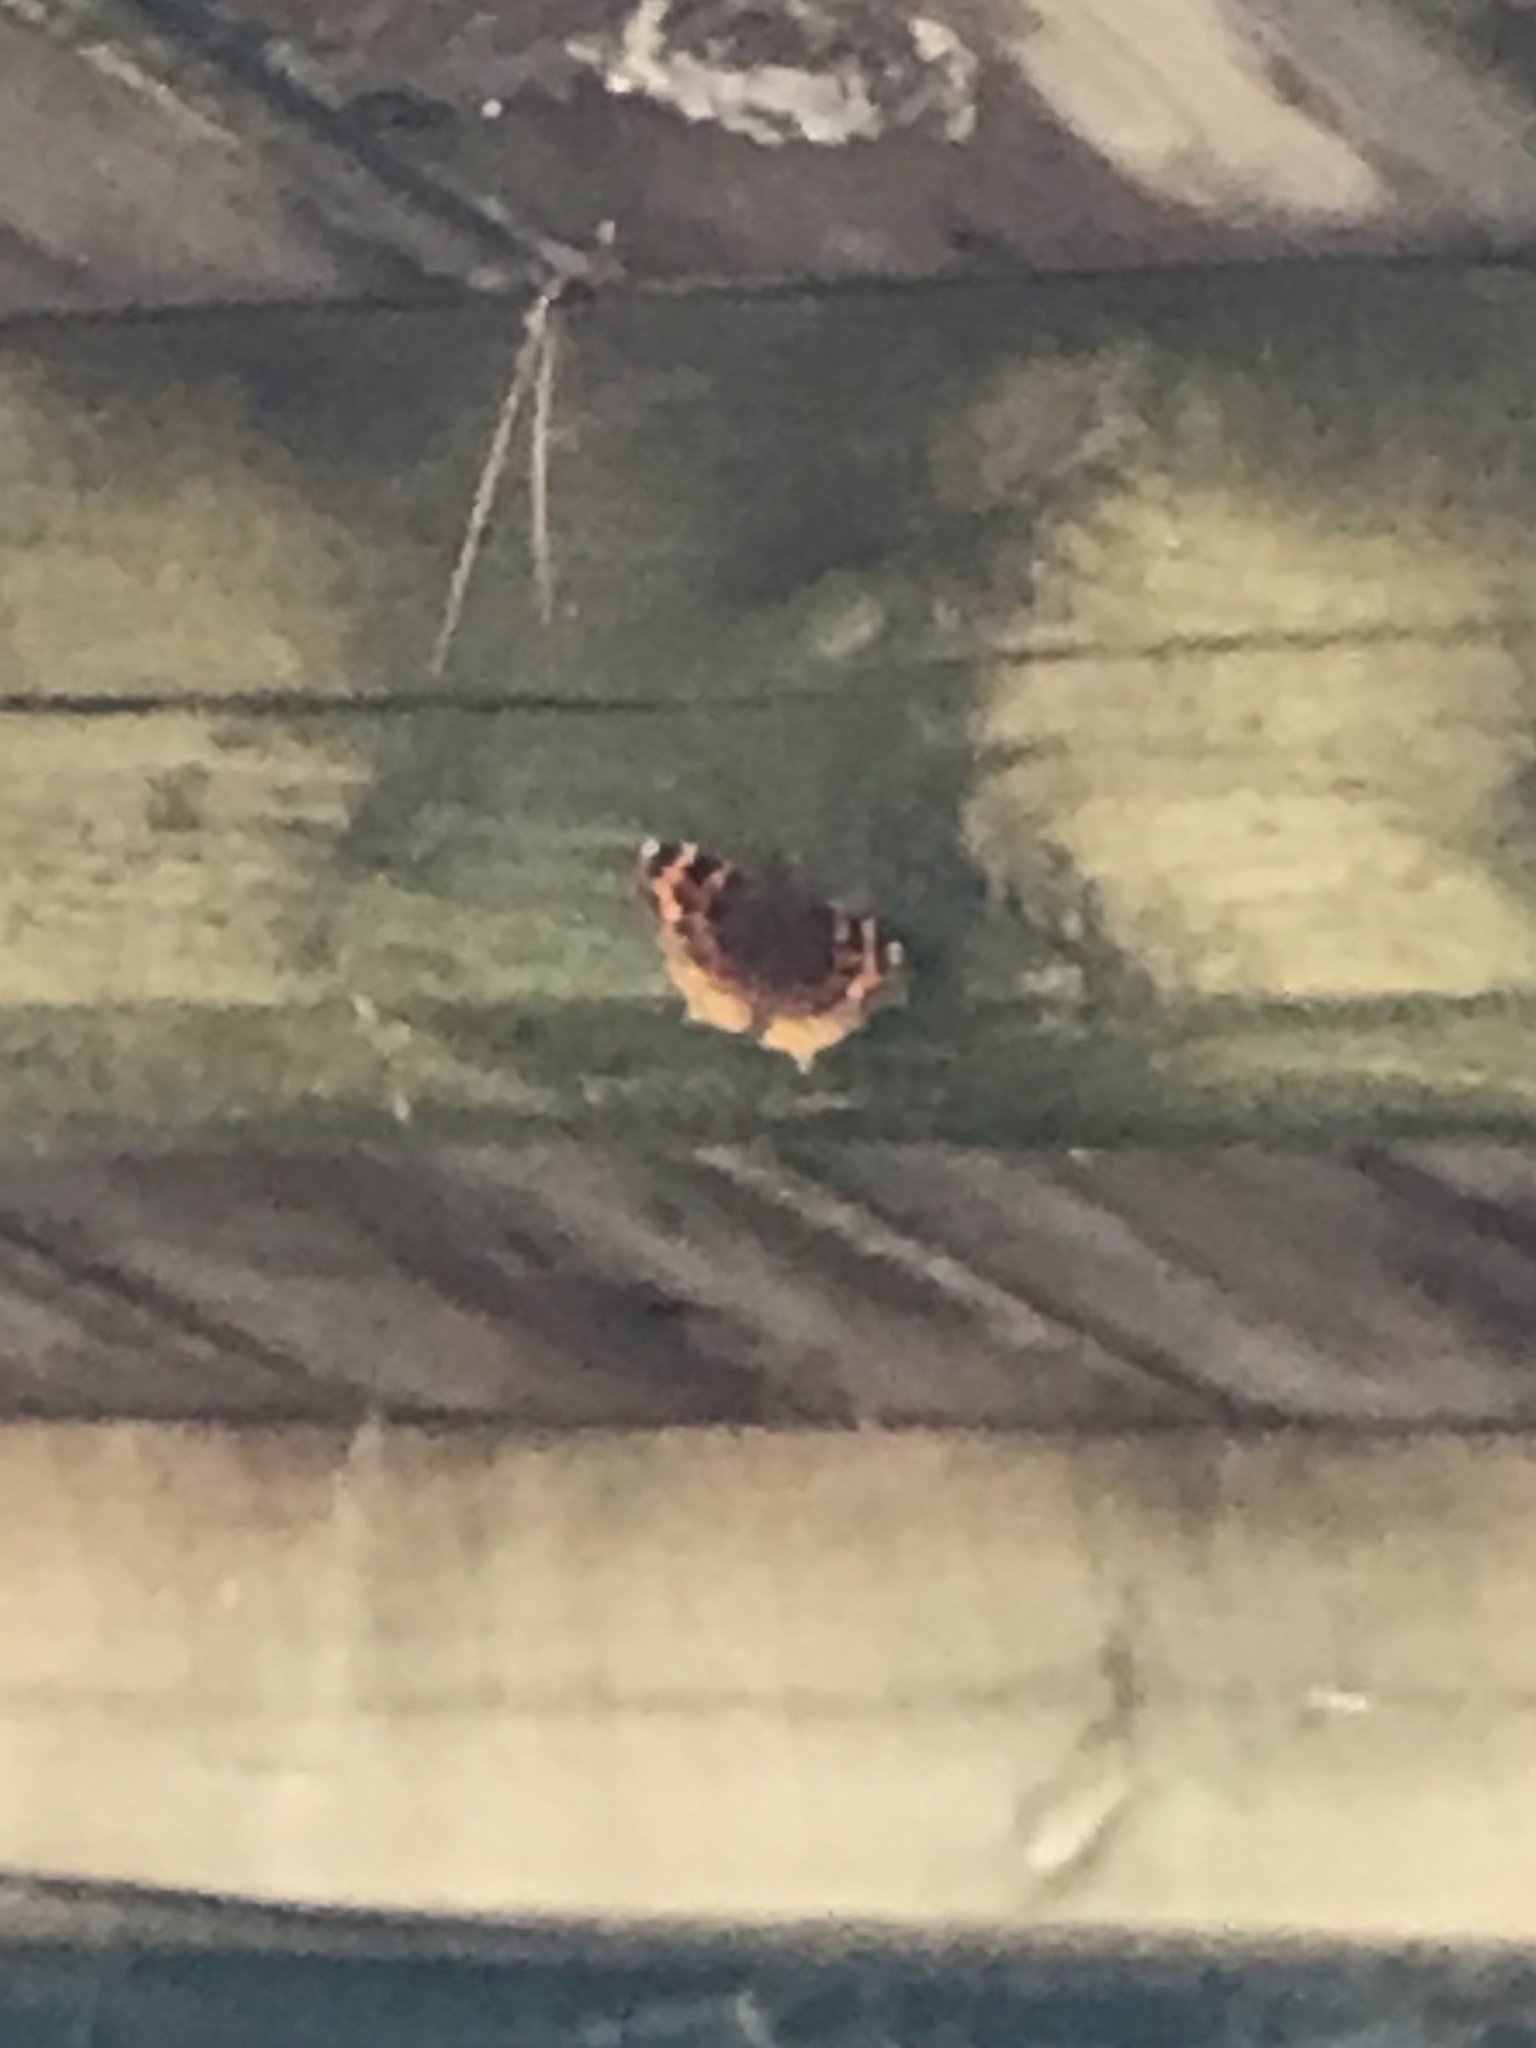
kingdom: Animalia
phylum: Arthropoda
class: Insecta
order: Lepidoptera
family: Nymphalidae
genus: Polygonia
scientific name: Polygonia vaualbum
